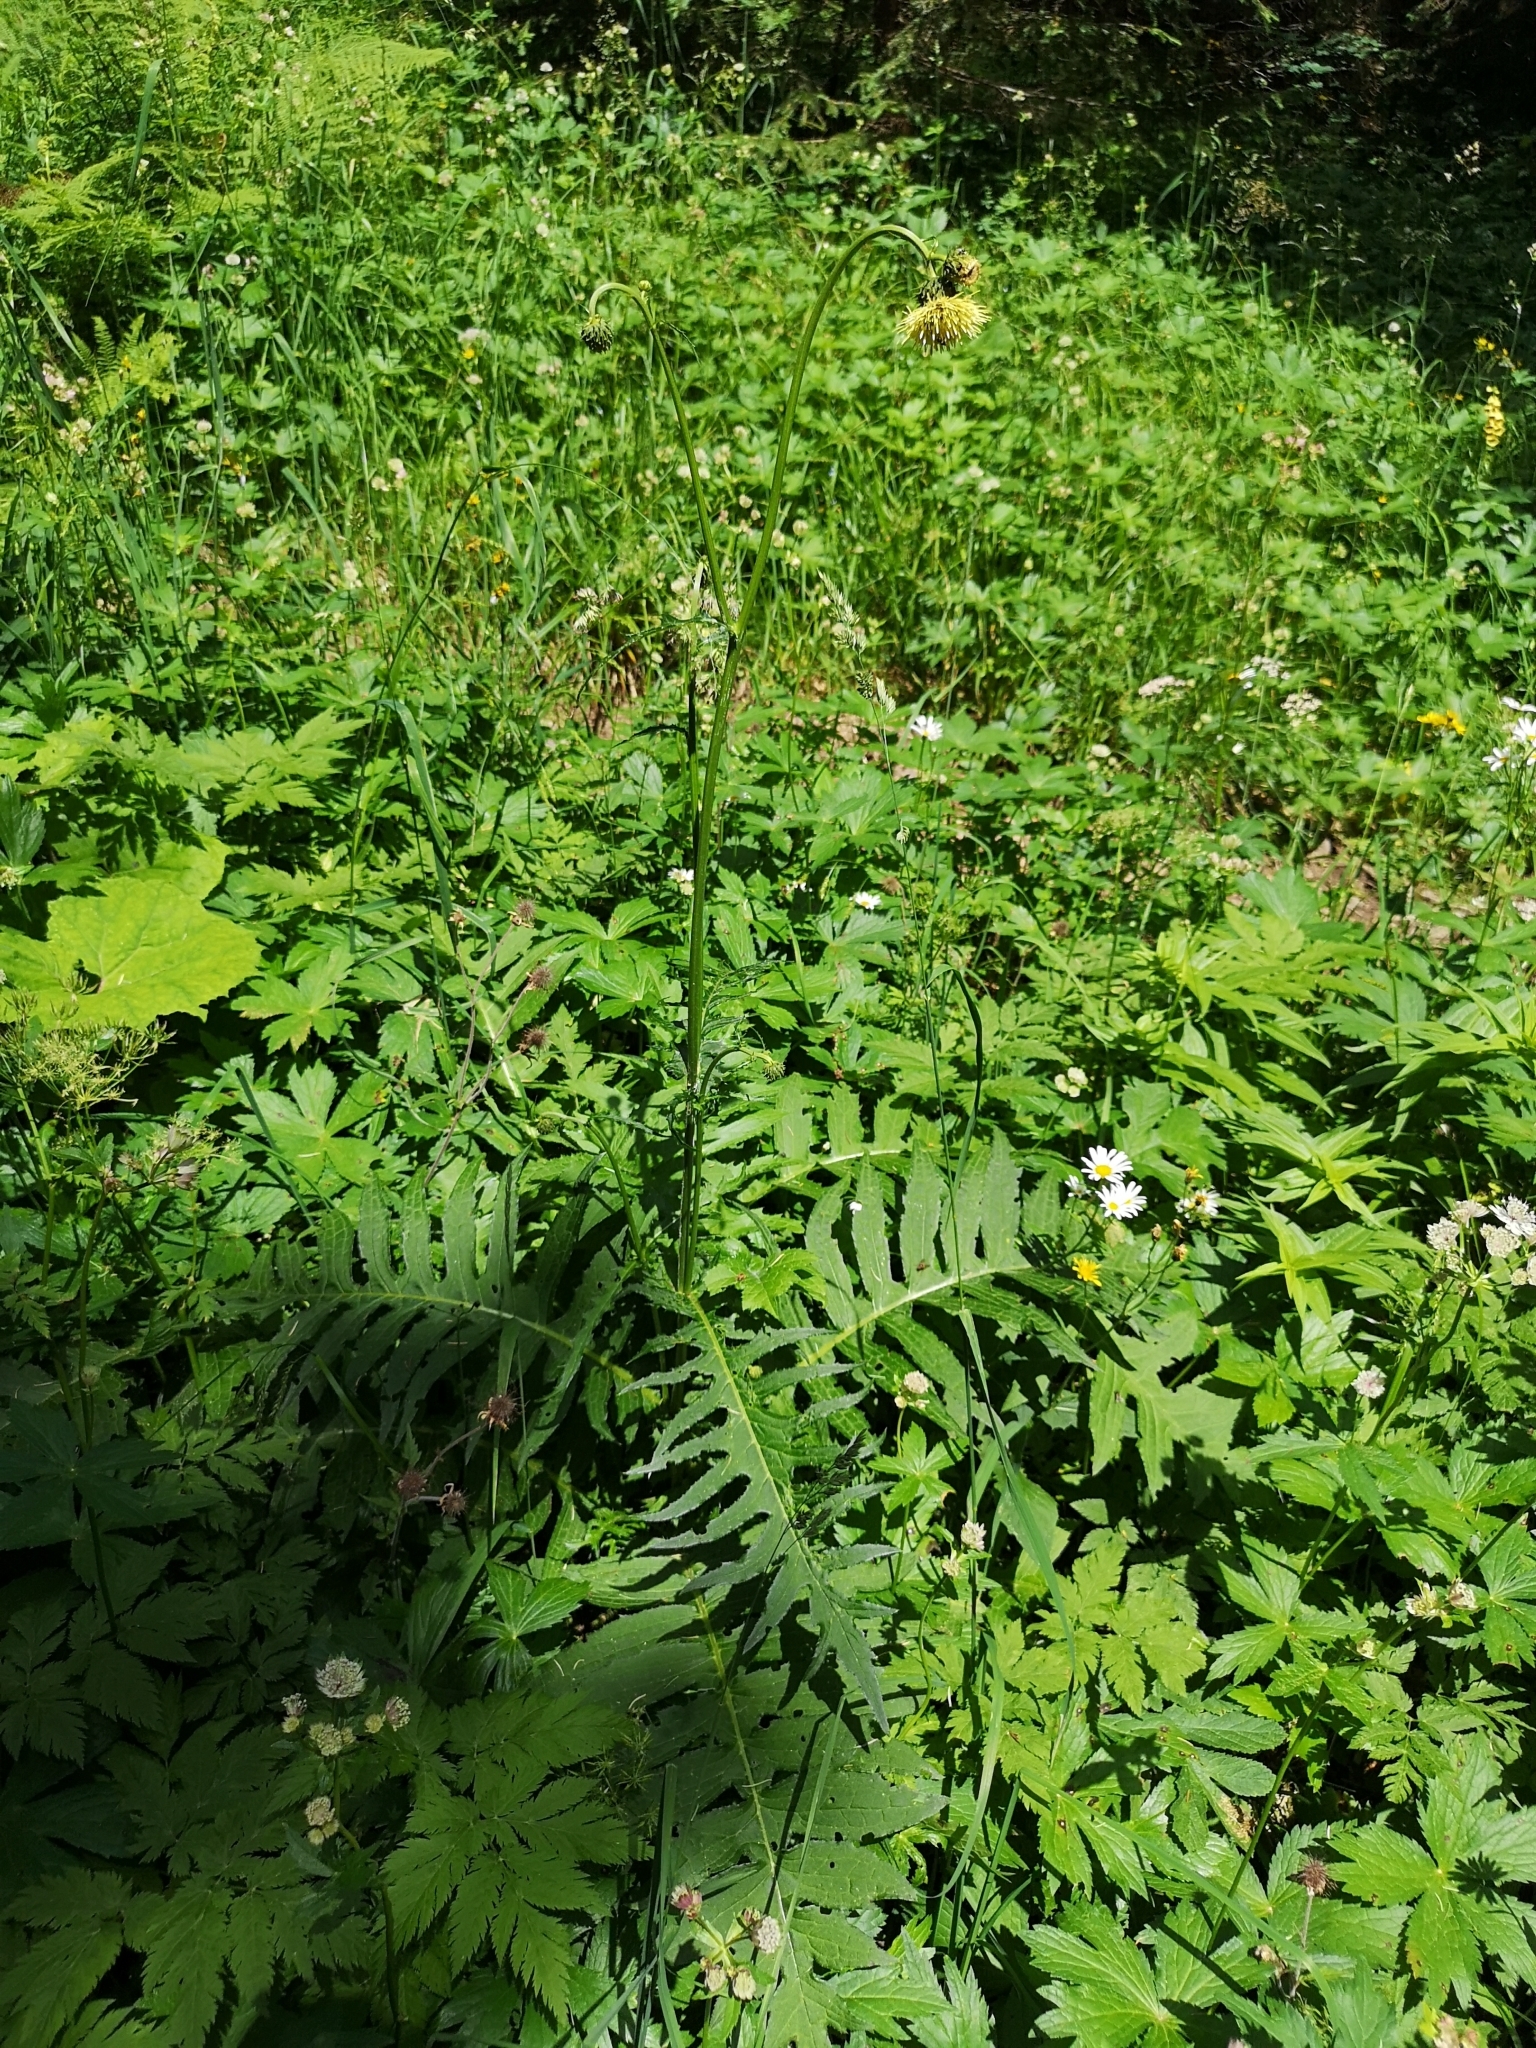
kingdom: Plantae
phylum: Tracheophyta
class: Magnoliopsida
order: Asterales
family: Asteraceae
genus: Cirsium
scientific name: Cirsium erisithales
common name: Yellow thistle
